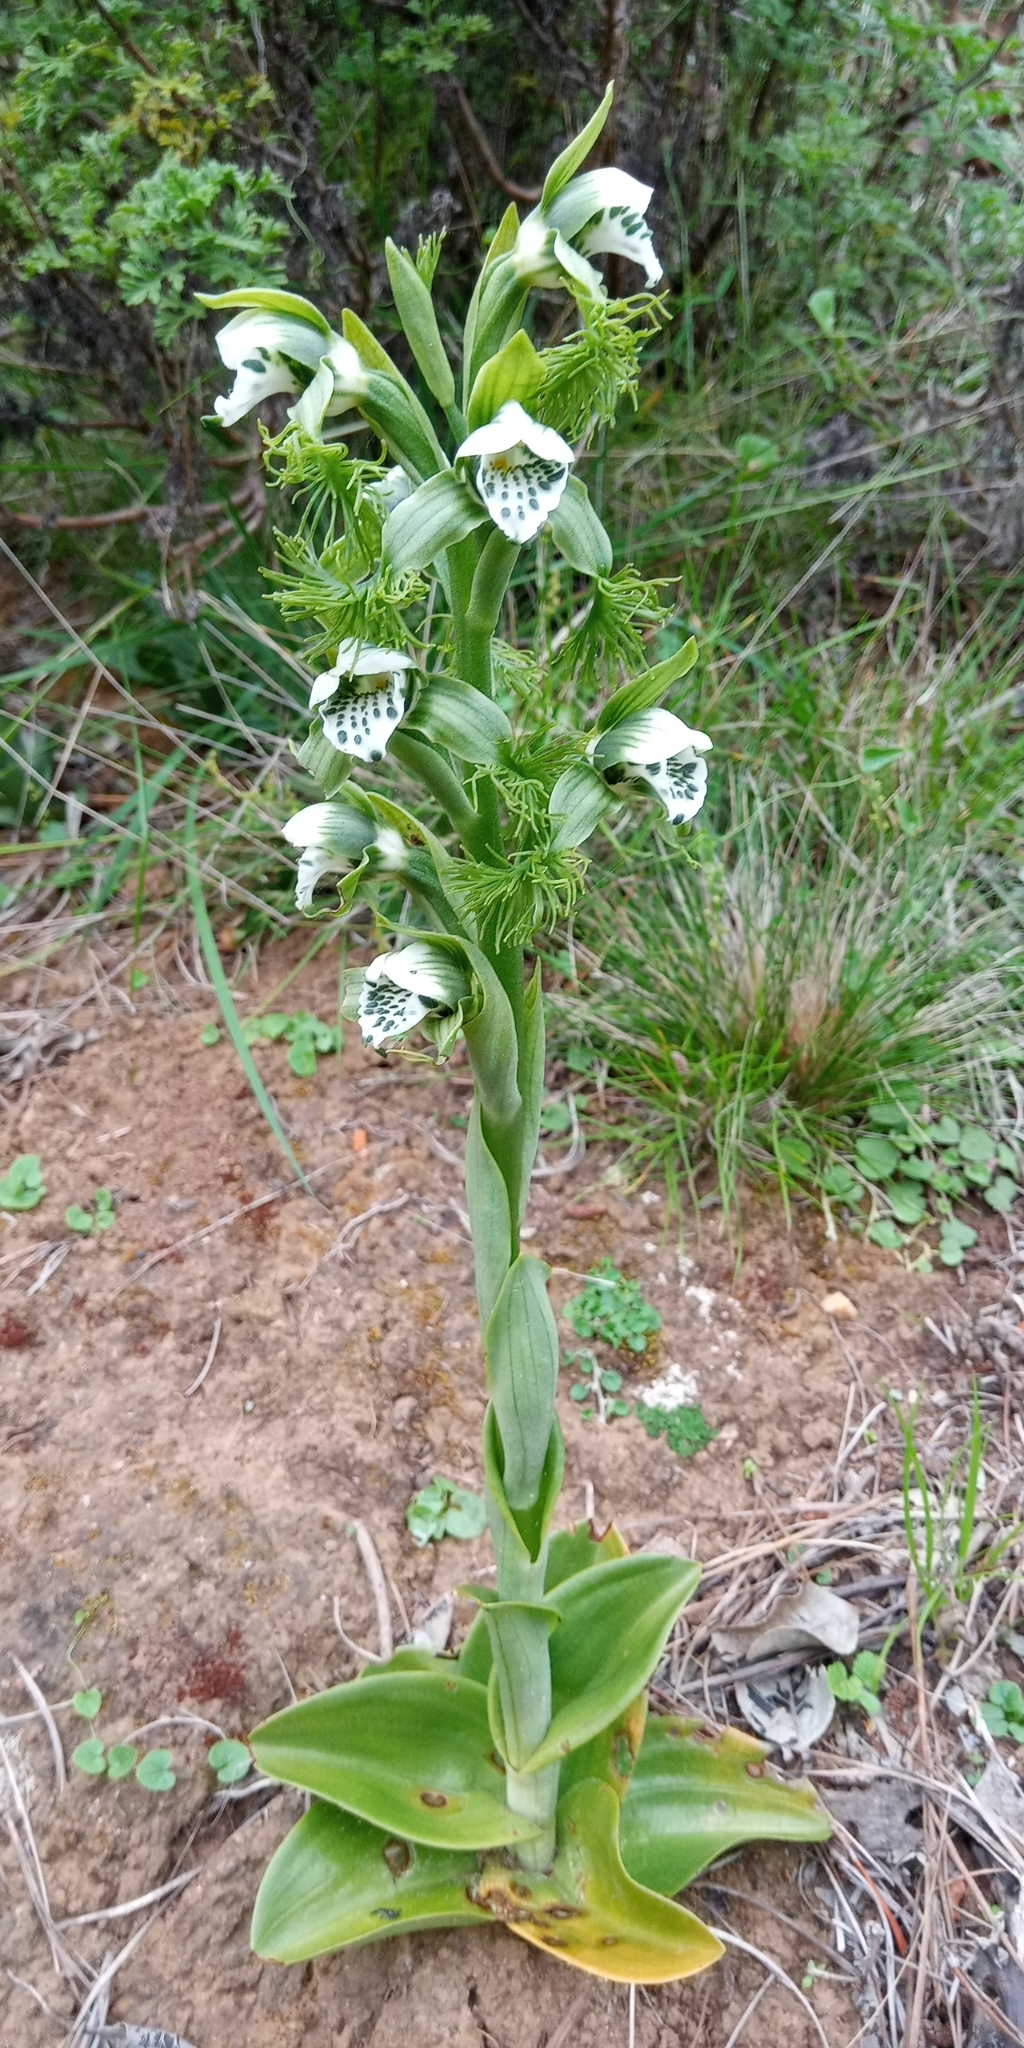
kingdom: Plantae
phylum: Tracheophyta
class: Liliopsida
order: Asparagales
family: Orchidaceae
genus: Bipinnula
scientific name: Bipinnula fimbriata
